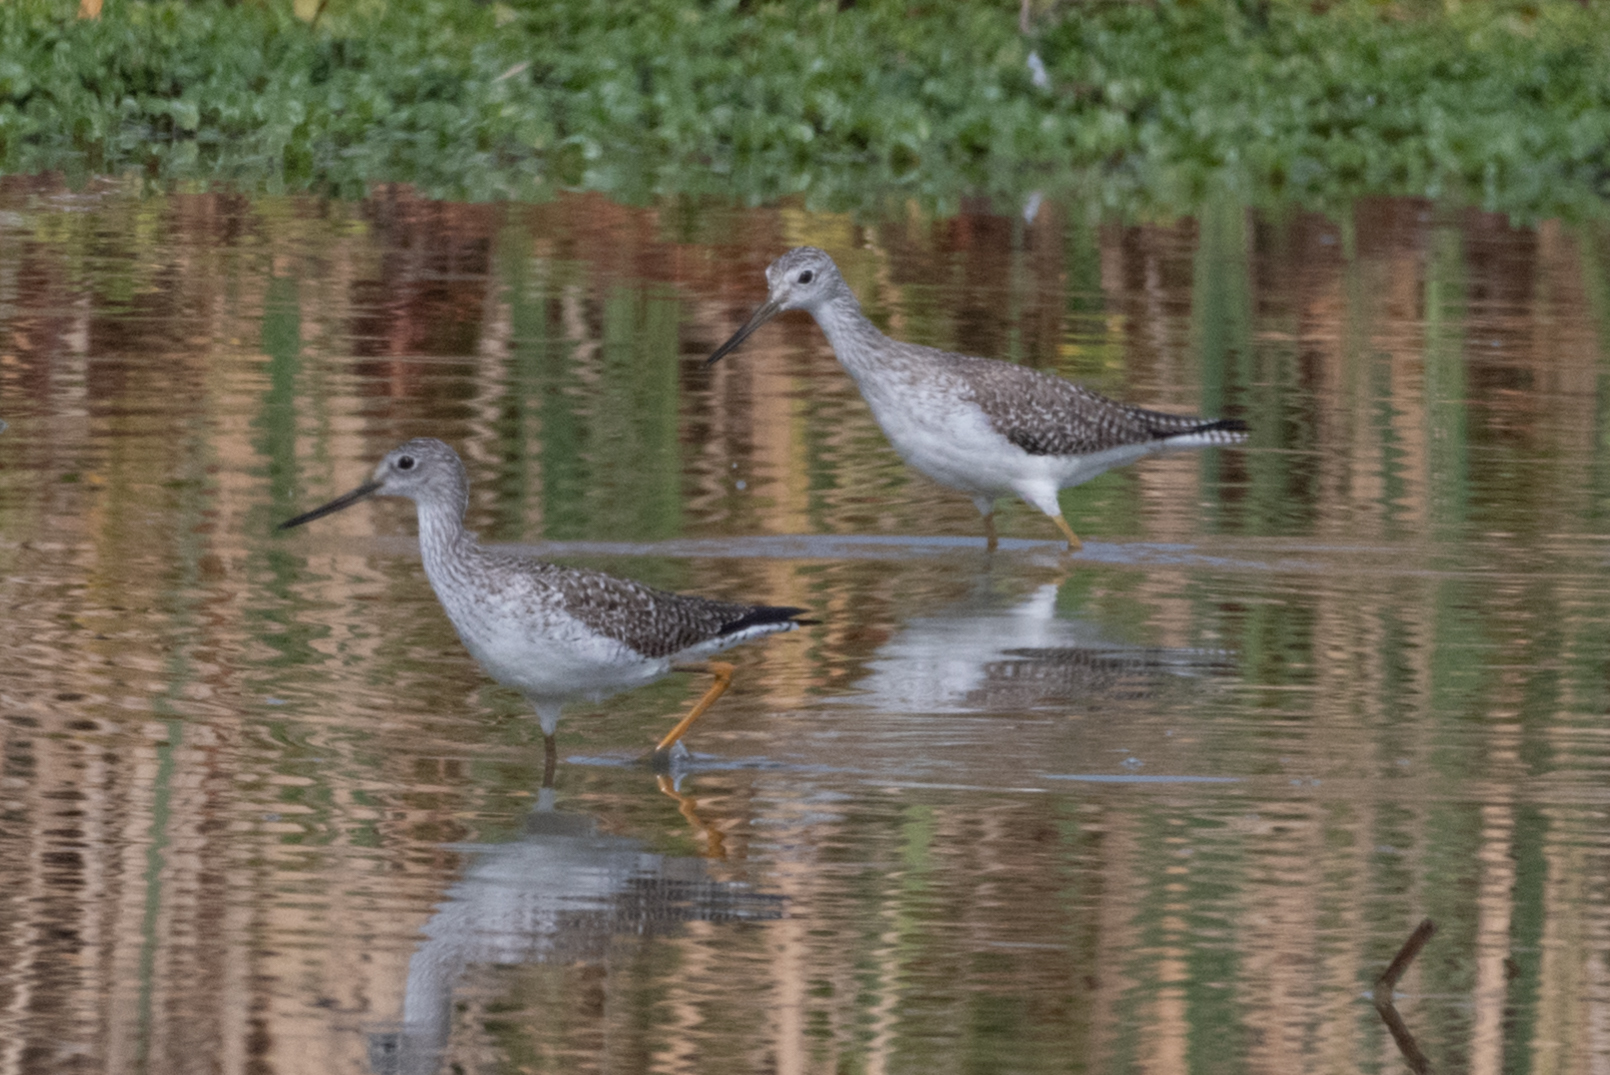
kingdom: Animalia
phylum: Chordata
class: Aves
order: Charadriiformes
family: Scolopacidae
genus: Tringa
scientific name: Tringa melanoleuca
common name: Greater yellowlegs
